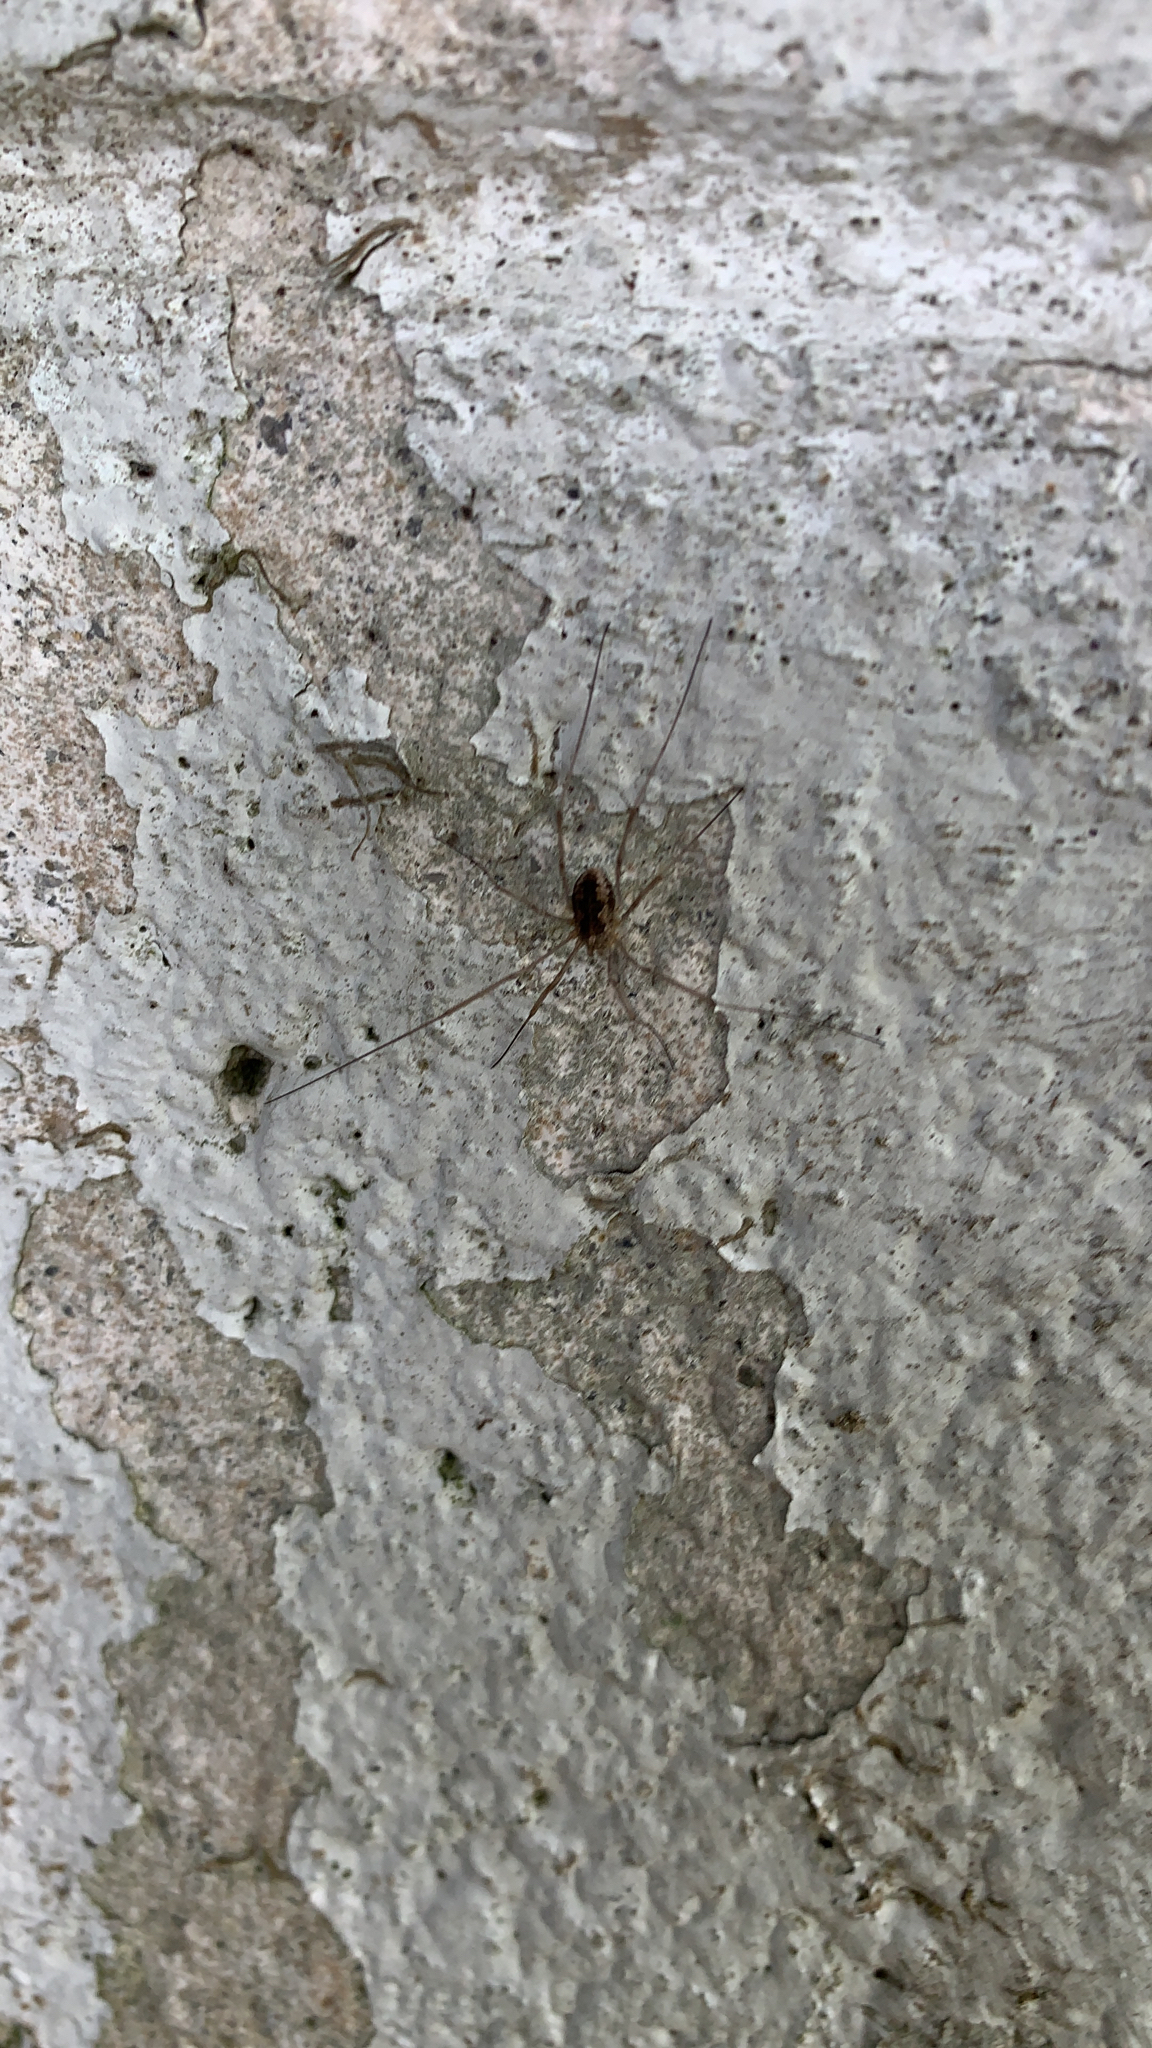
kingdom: Animalia
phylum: Arthropoda
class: Arachnida
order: Opiliones
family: Phalangiidae
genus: Phalangium
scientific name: Phalangium opilio
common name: Daddy longleg
